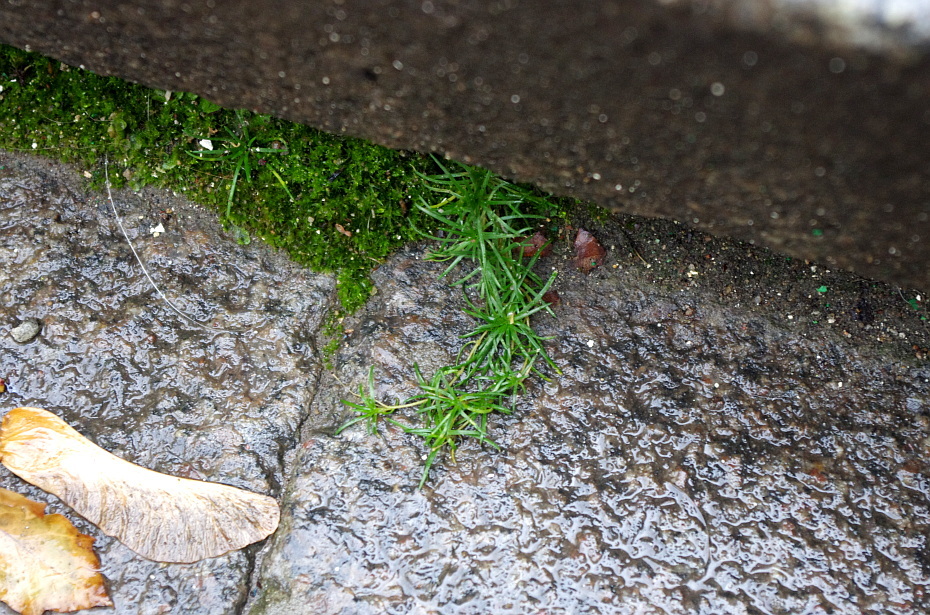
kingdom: Plantae
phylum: Tracheophyta
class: Magnoliopsida
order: Caryophyllales
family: Caryophyllaceae
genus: Sagina
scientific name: Sagina procumbens
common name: Procumbent pearlwort
